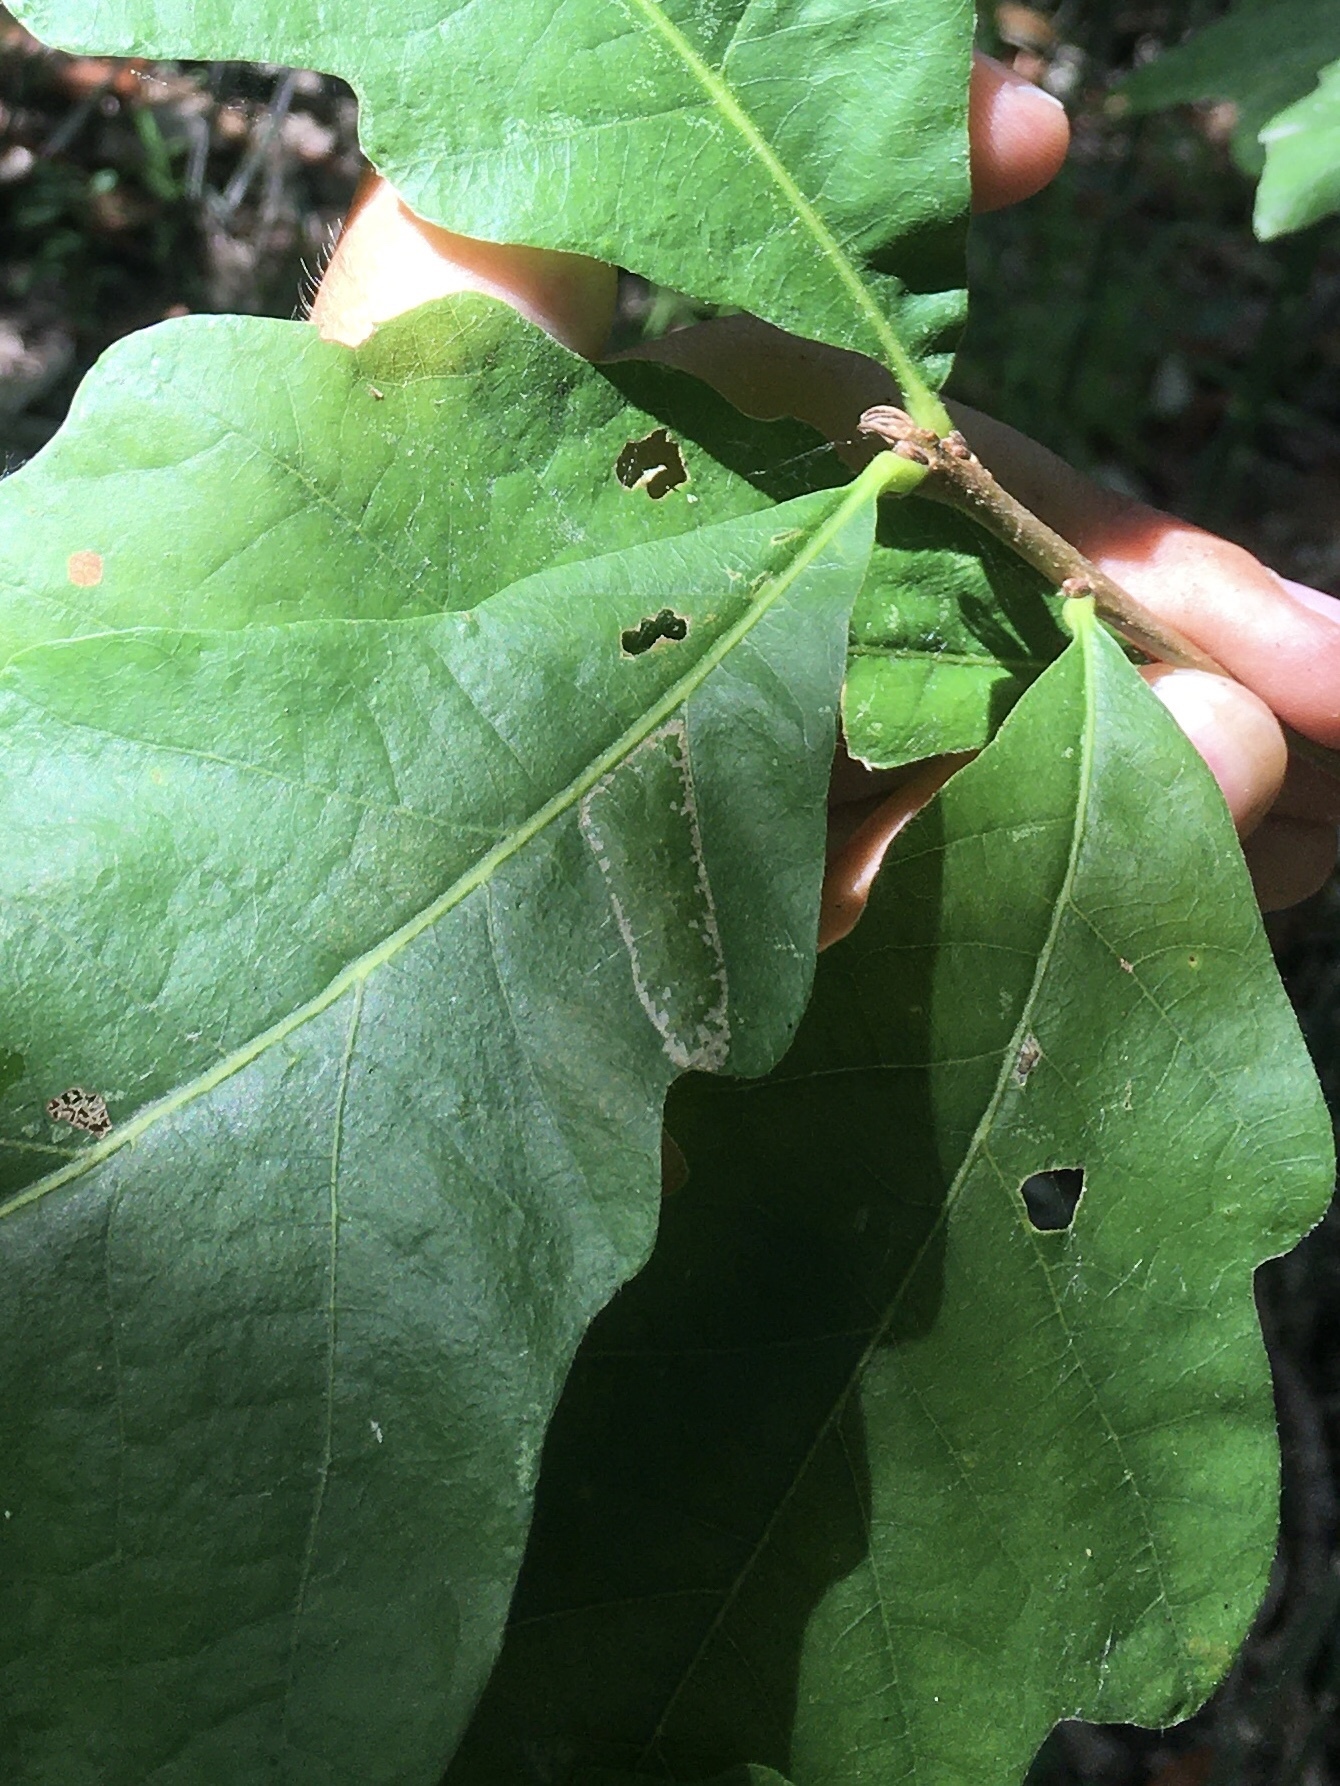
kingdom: Animalia
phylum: Arthropoda
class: Insecta
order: Lepidoptera
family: Gracillariidae
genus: Phyllonorycter
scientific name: Phyllonorycter
